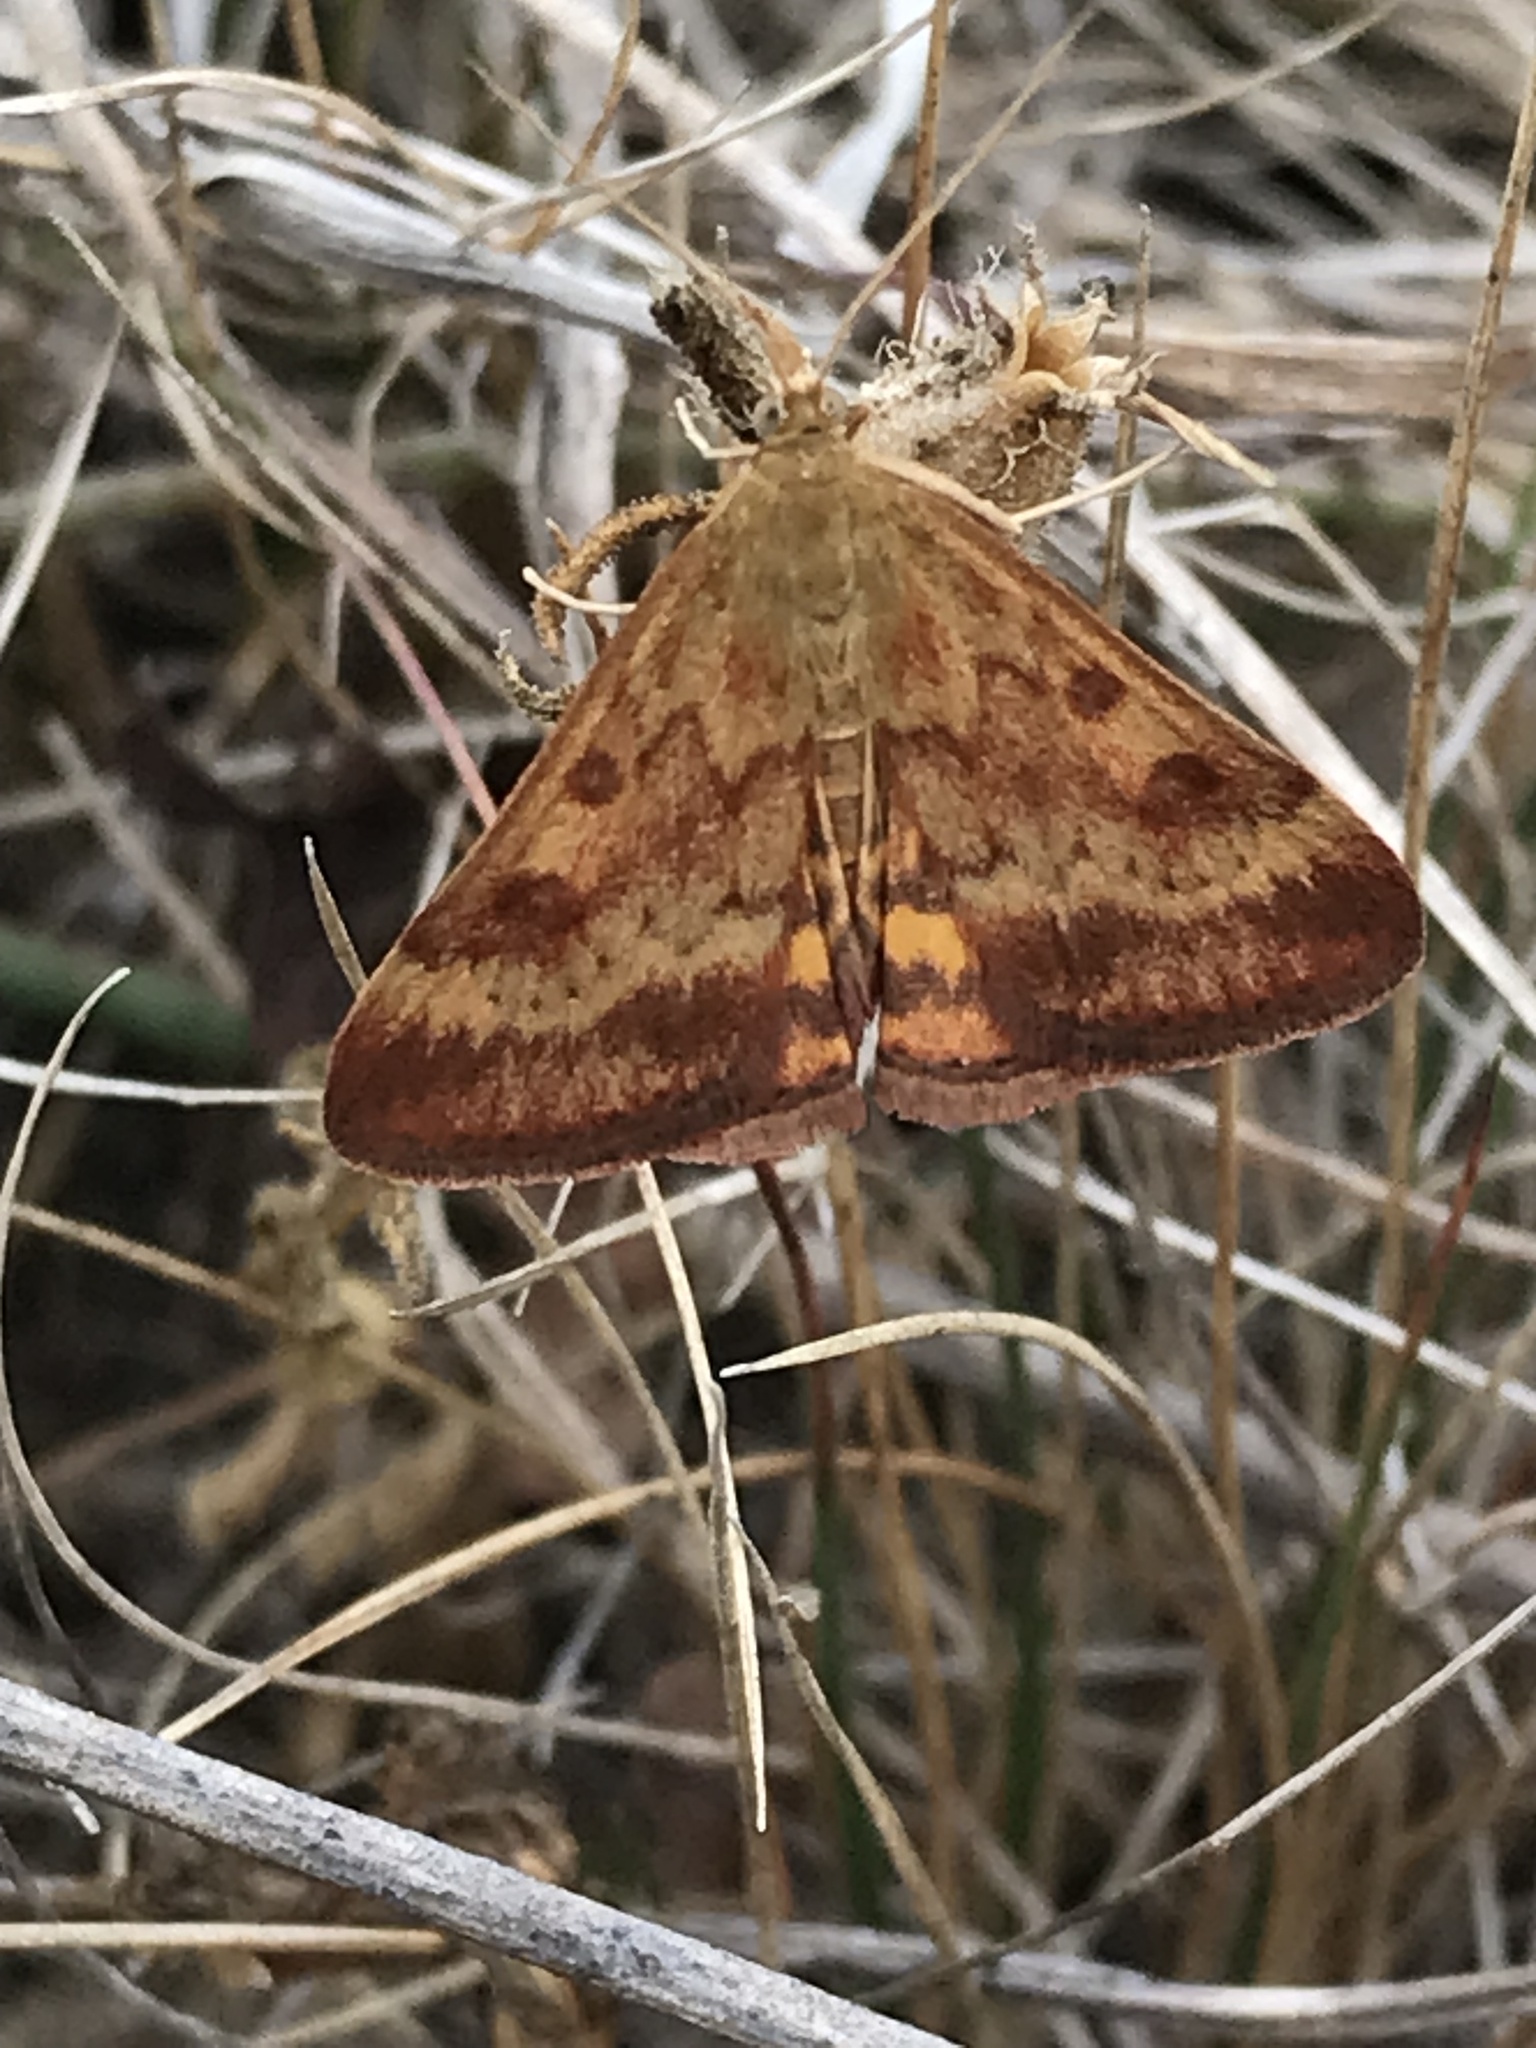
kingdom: Animalia
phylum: Arthropoda
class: Insecta
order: Lepidoptera
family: Crambidae
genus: Pyrausta
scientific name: Pyrausta subsequalis
